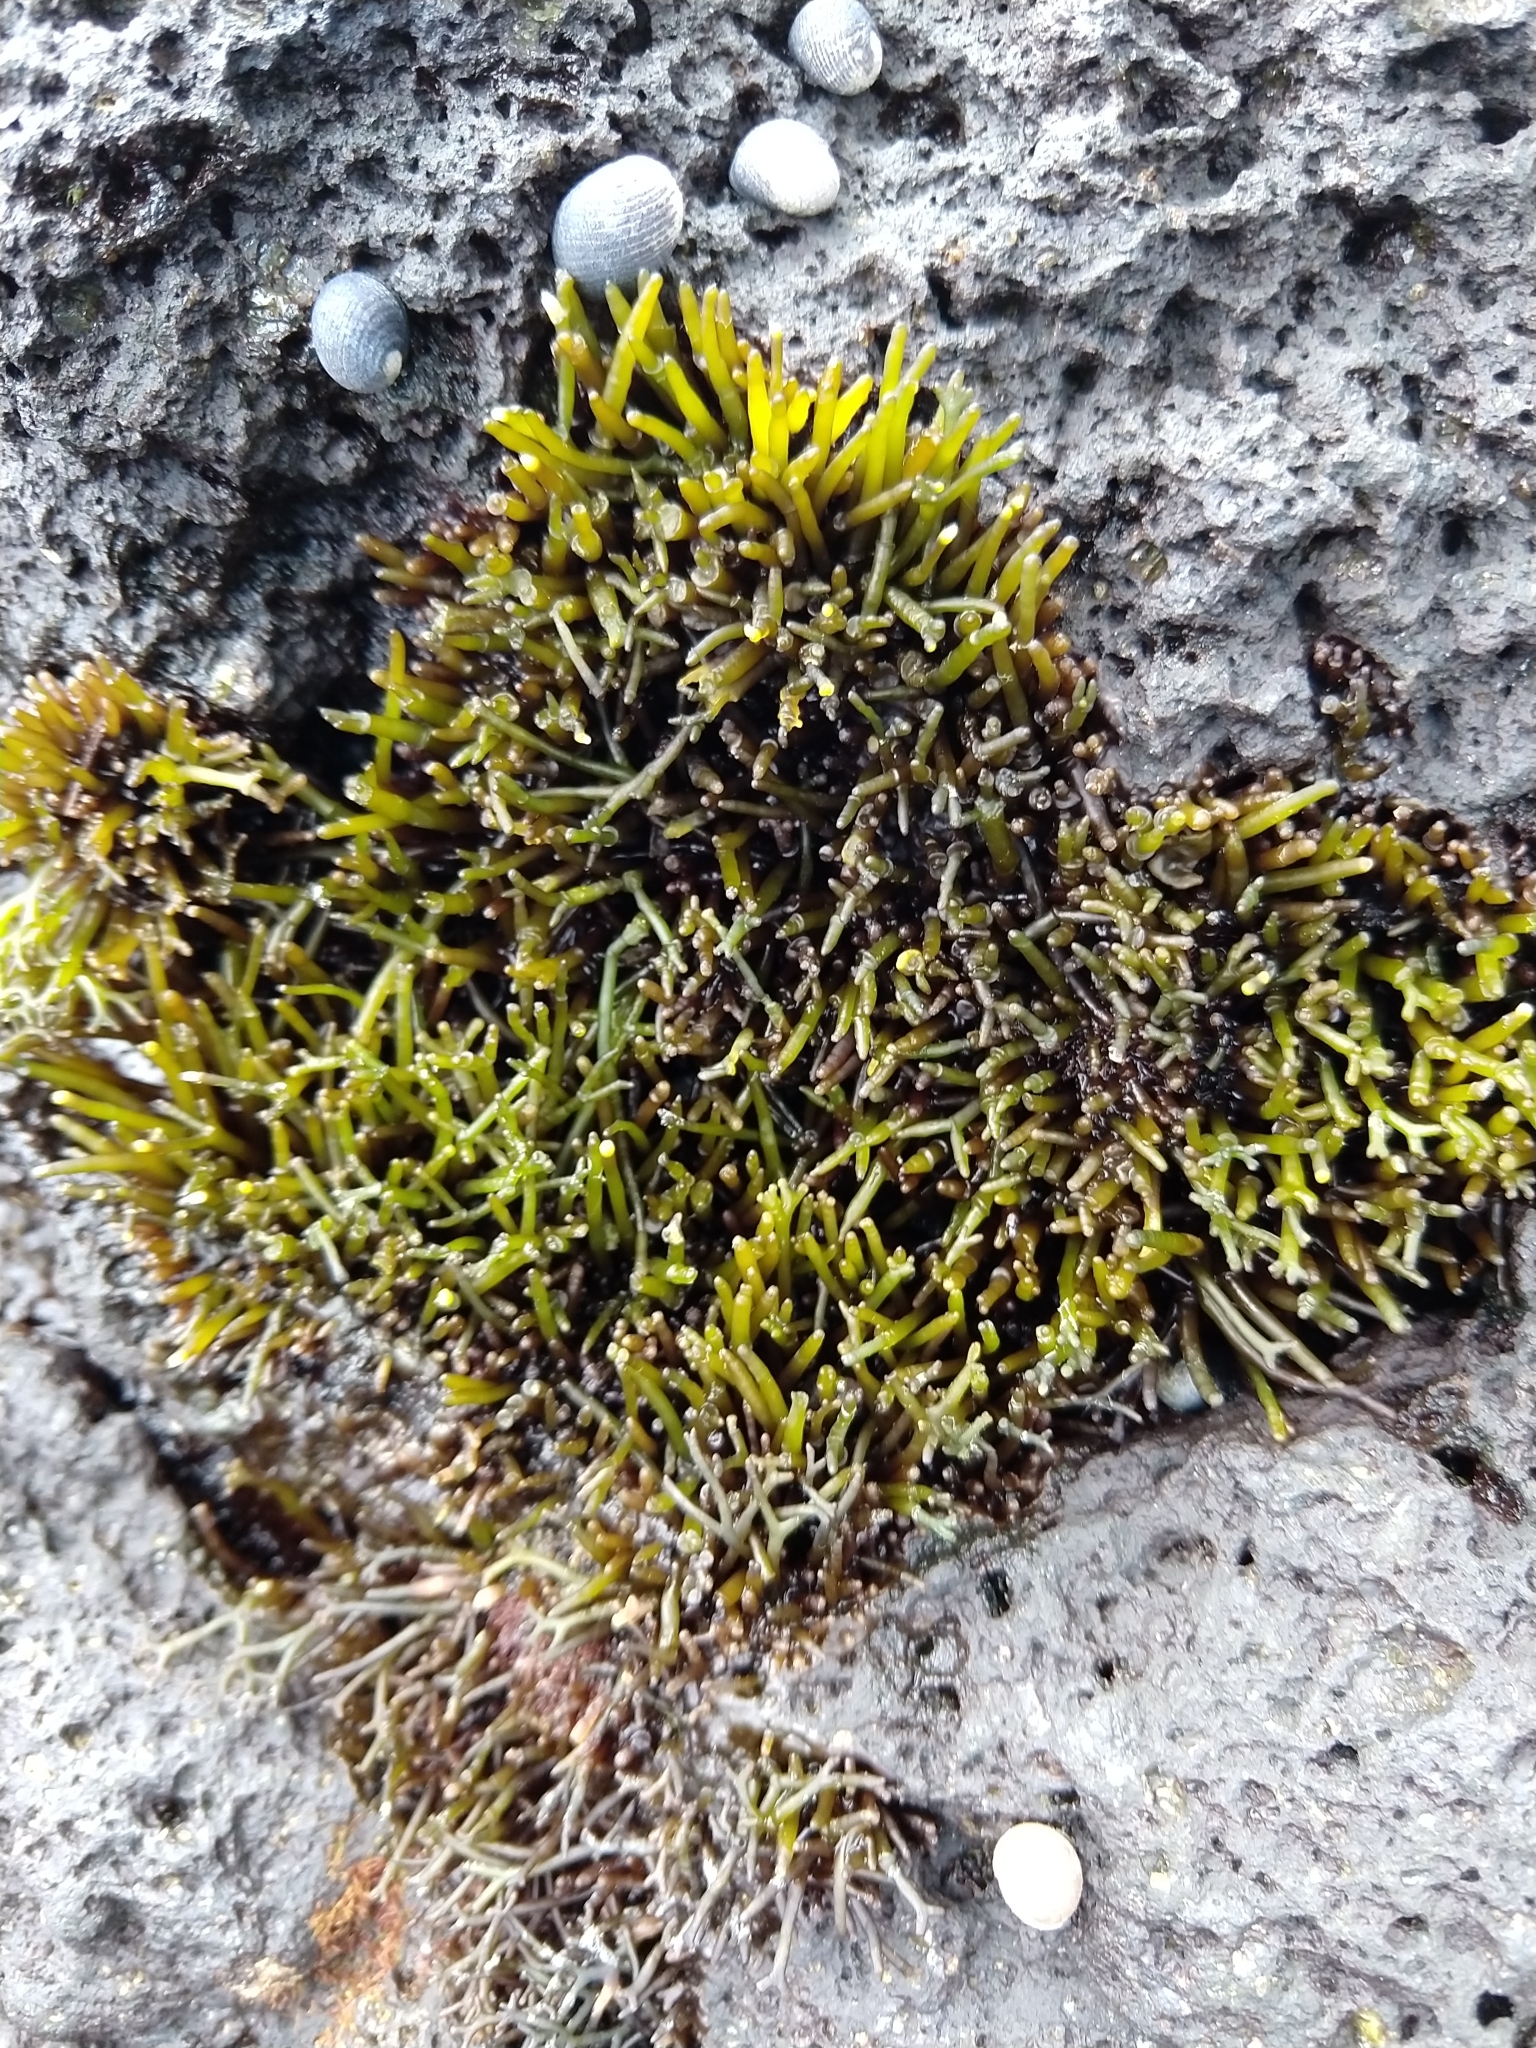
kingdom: Plantae
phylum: Rhodophyta
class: Florideophyceae
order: Gigartinales
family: Phyllophoraceae
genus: Gymnogongrus
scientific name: Gymnogongrus durvillei
